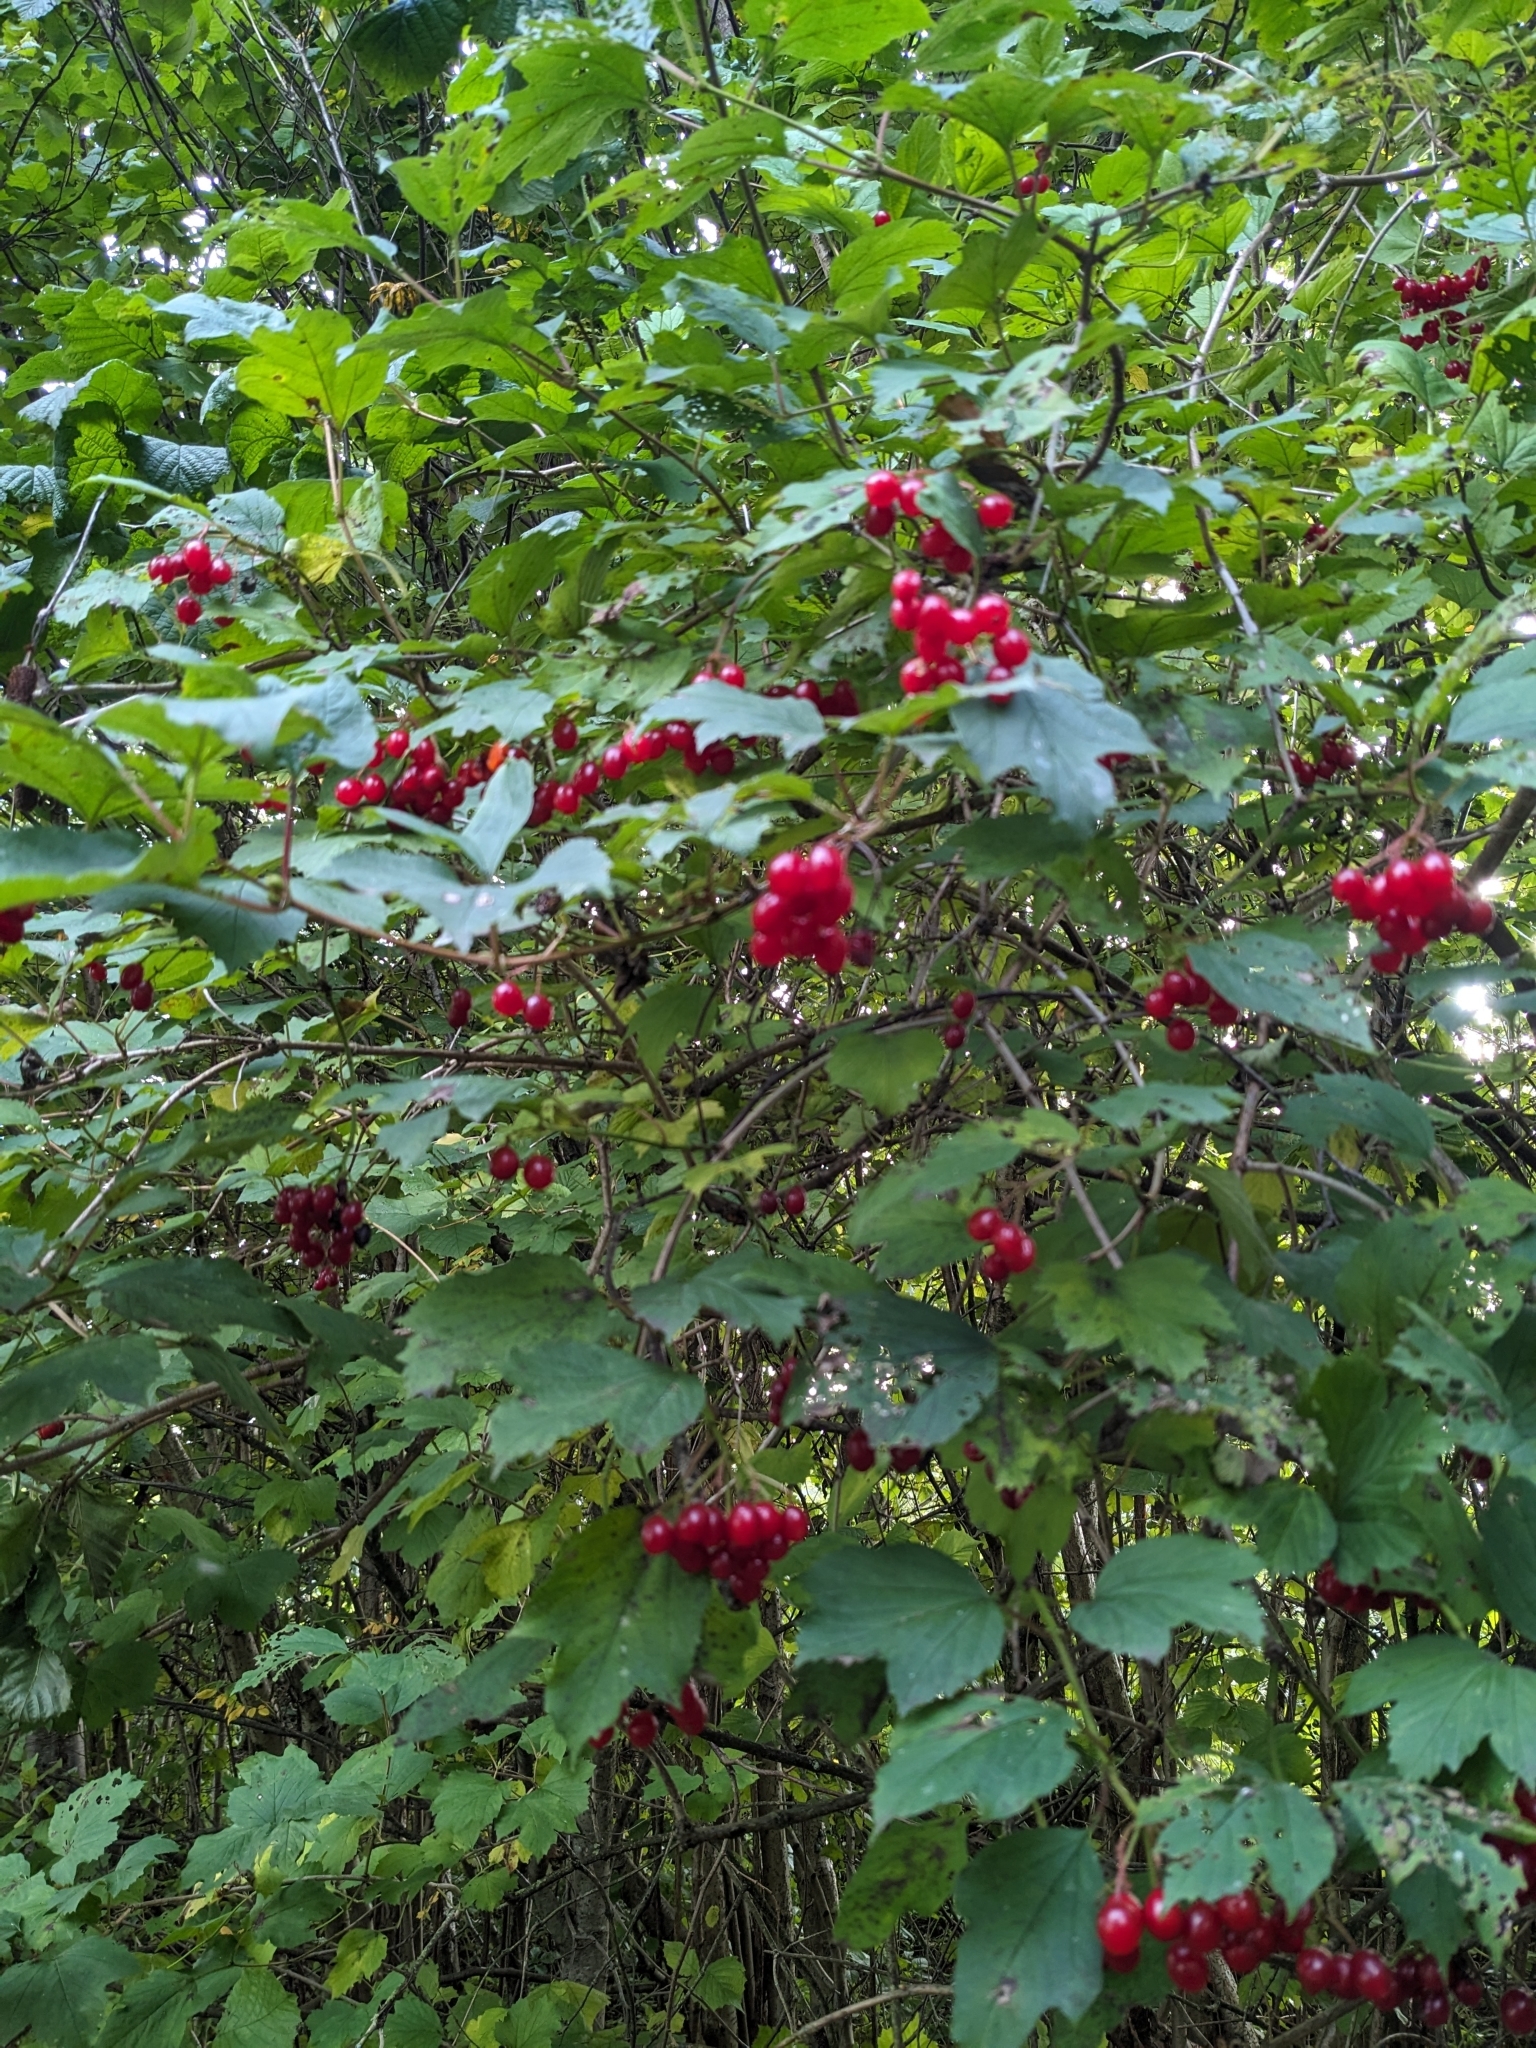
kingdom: Plantae
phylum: Tracheophyta
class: Magnoliopsida
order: Dipsacales
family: Viburnaceae
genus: Viburnum
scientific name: Viburnum opulus
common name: Guelder-rose
